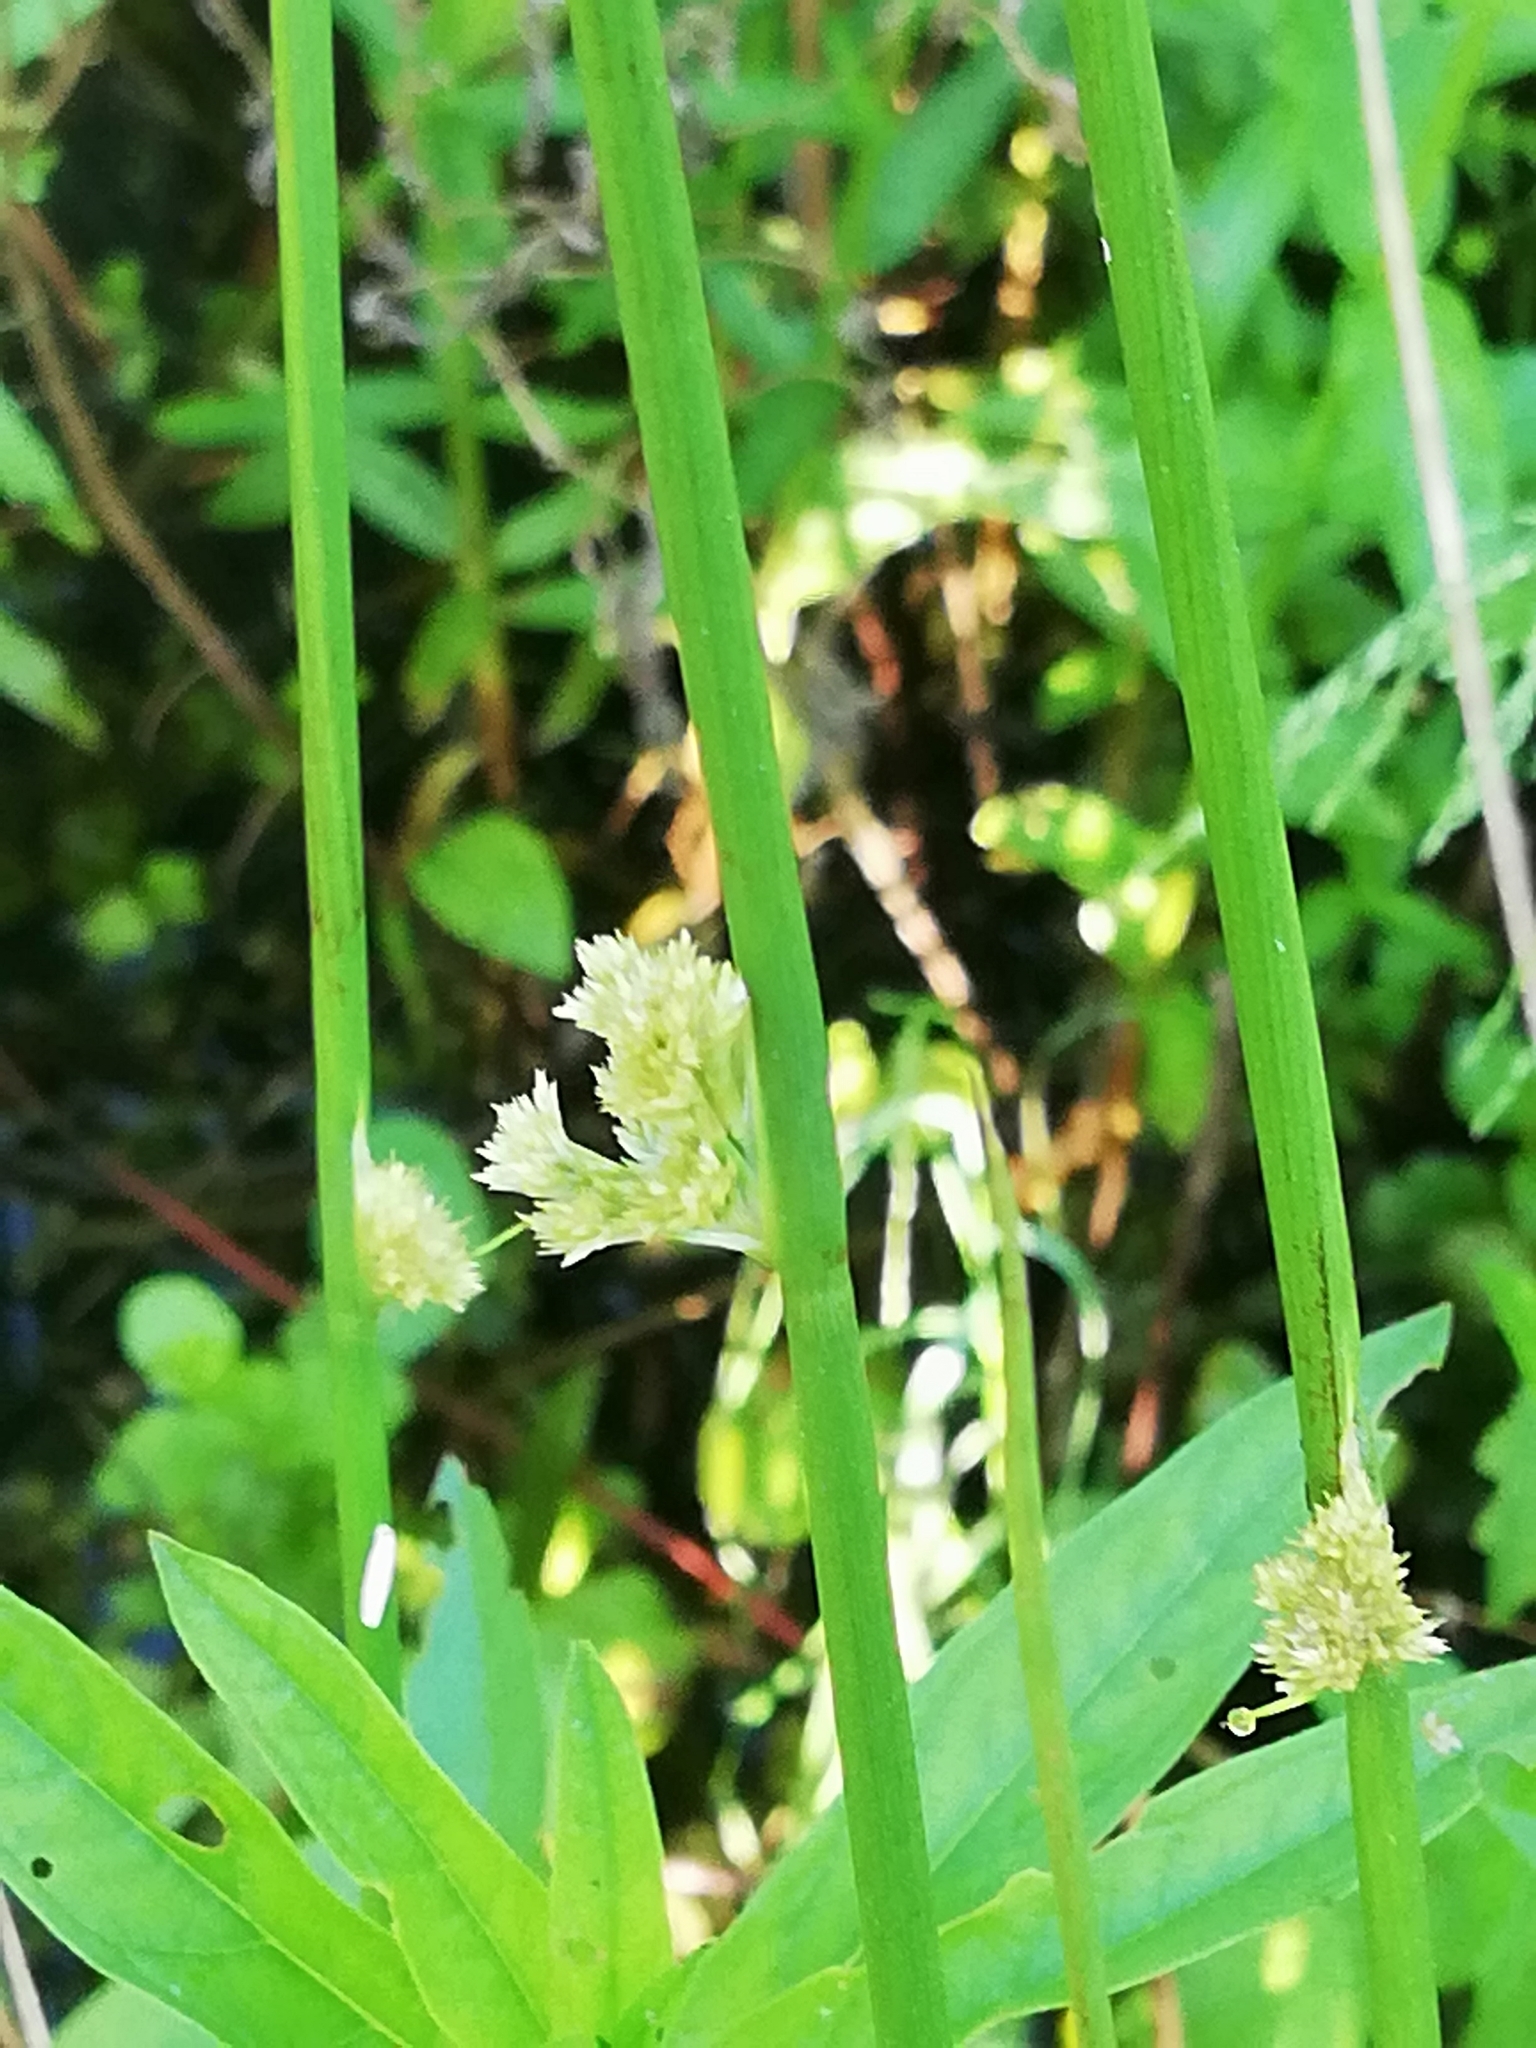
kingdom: Plantae
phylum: Tracheophyta
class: Liliopsida
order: Poales
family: Juncaceae
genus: Juncus
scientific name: Juncus effusus
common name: Soft rush
